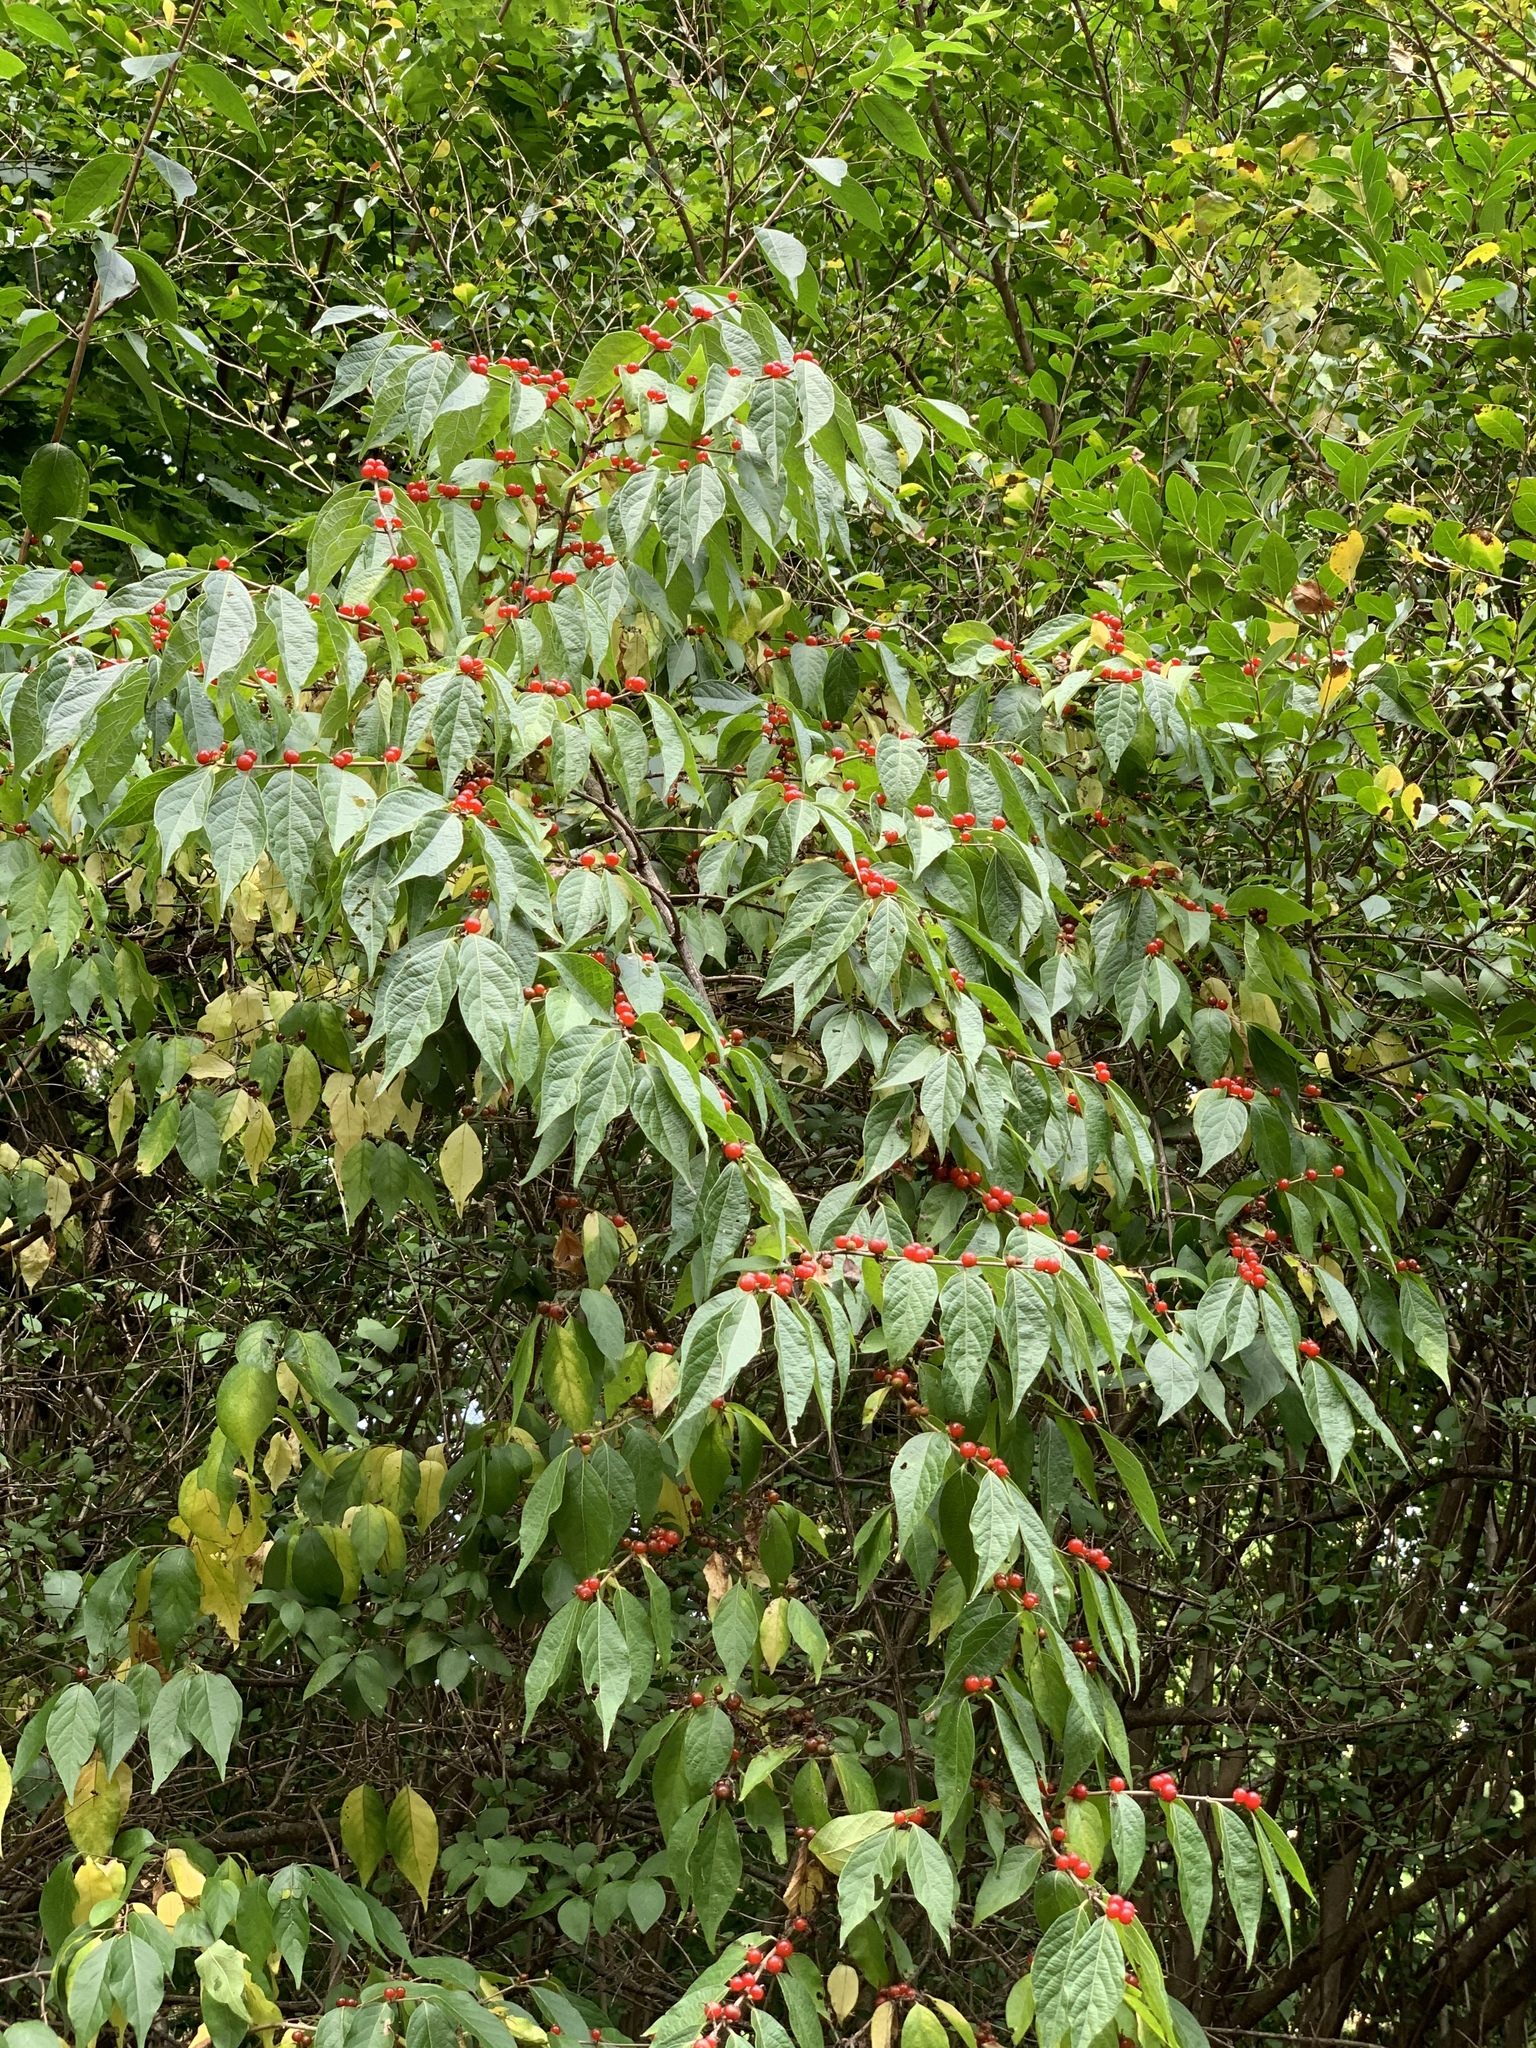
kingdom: Plantae
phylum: Tracheophyta
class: Magnoliopsida
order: Dipsacales
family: Caprifoliaceae
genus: Lonicera
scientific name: Lonicera maackii
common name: Amur honeysuckle
